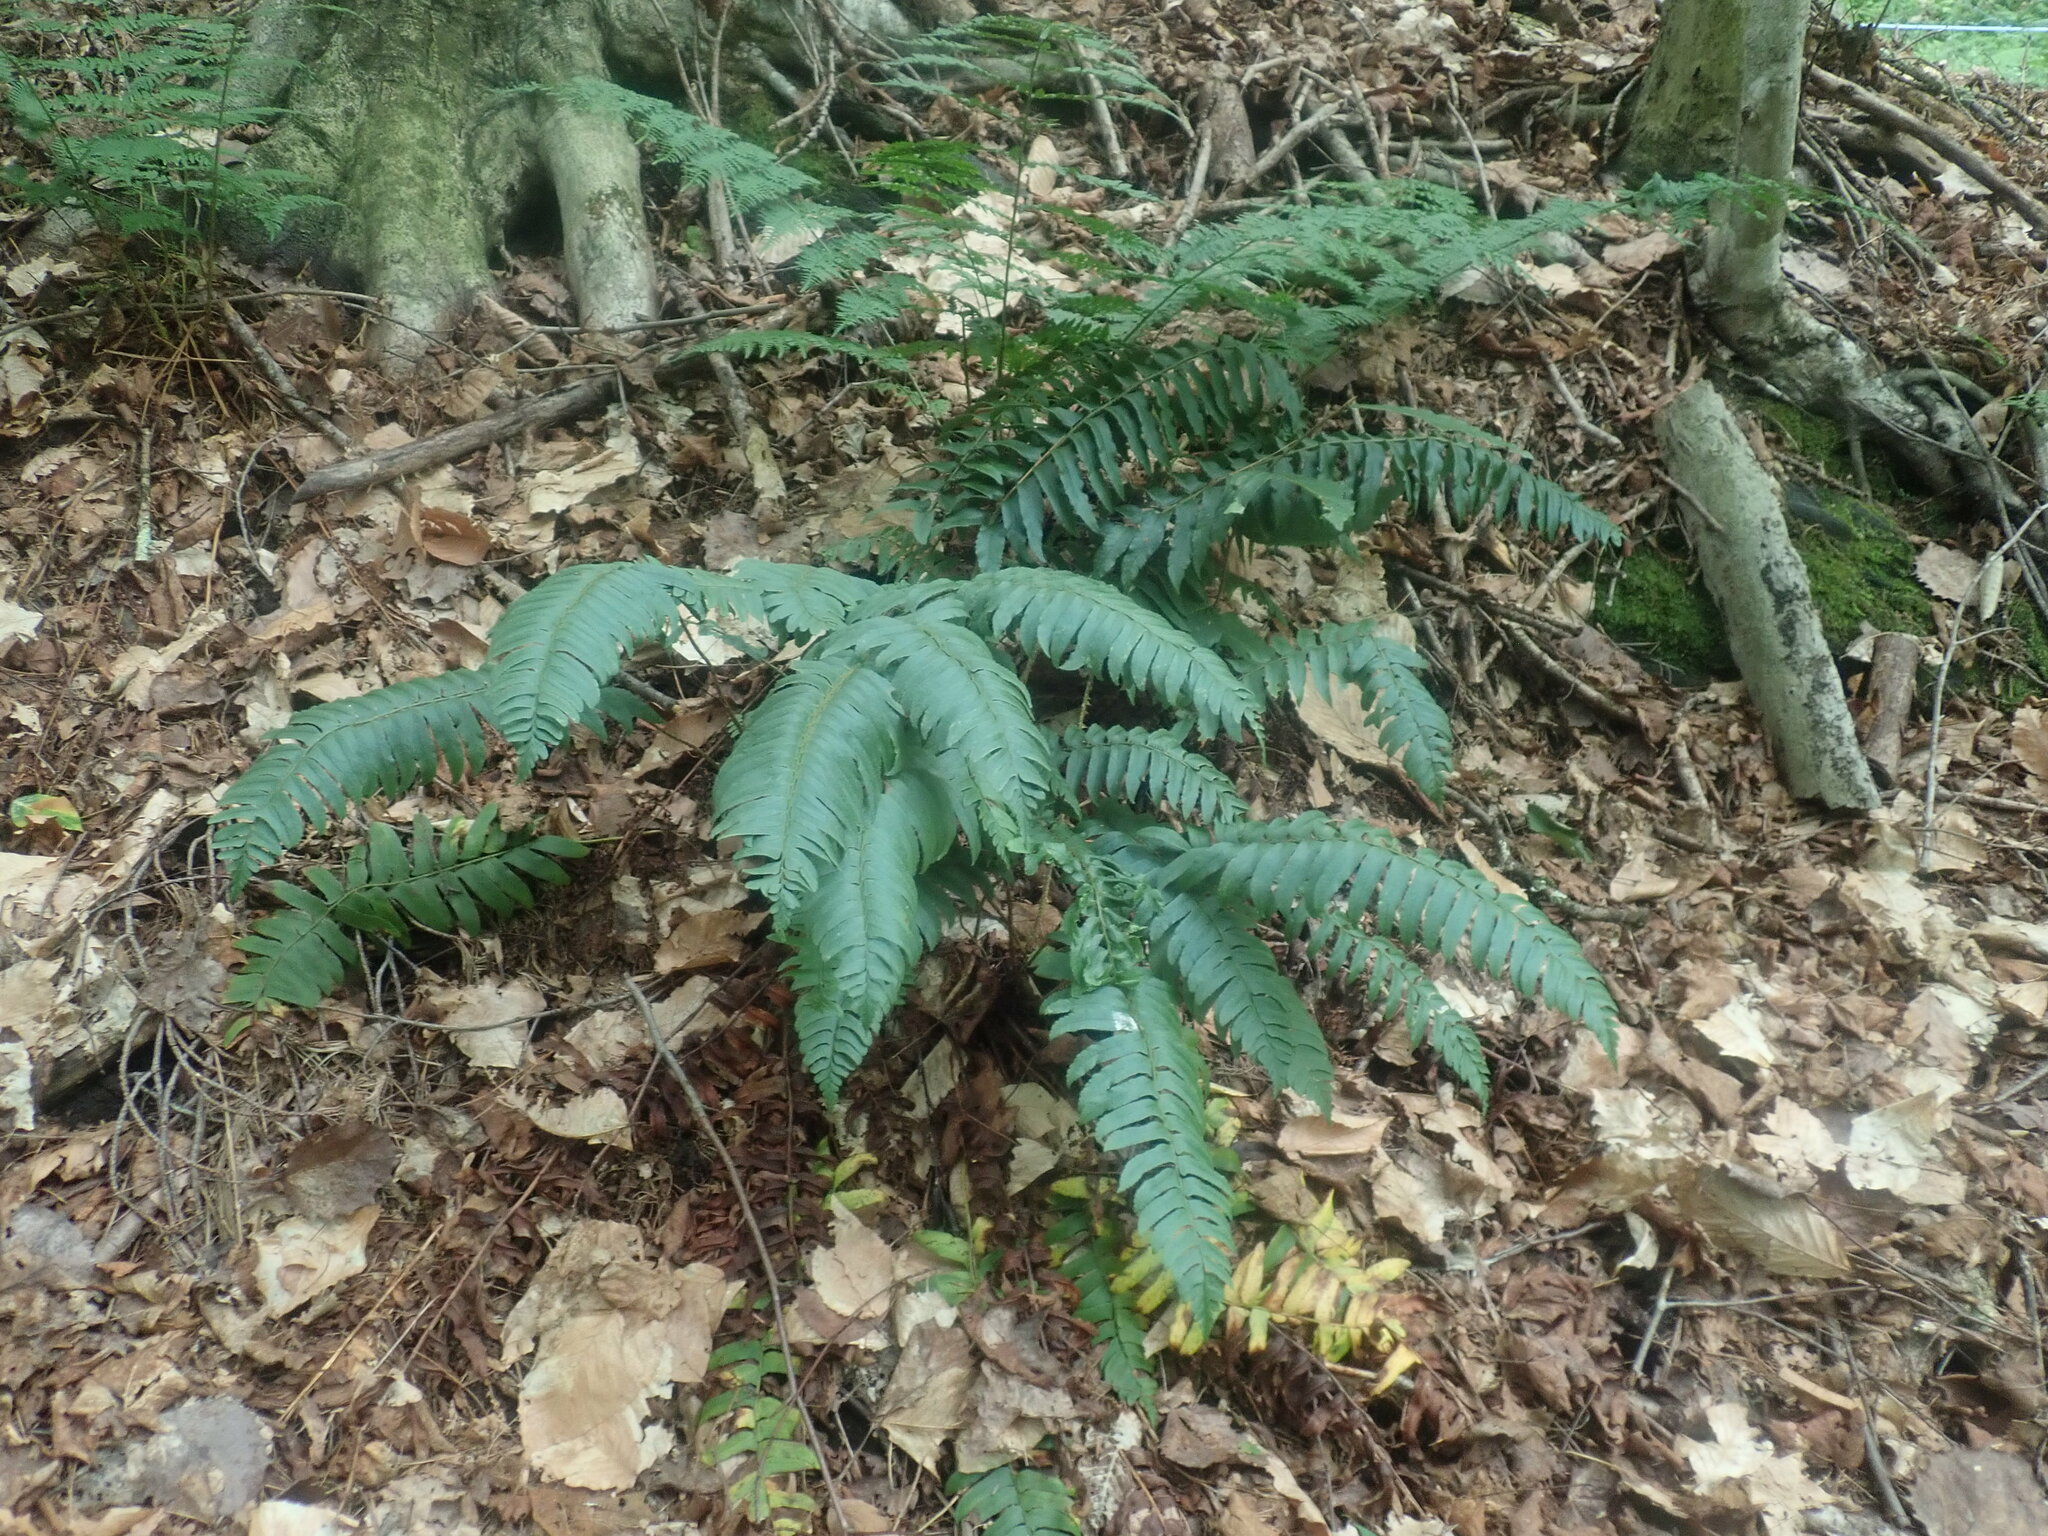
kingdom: Plantae
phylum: Tracheophyta
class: Polypodiopsida
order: Polypodiales
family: Dryopteridaceae
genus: Polystichum
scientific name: Polystichum acrostichoides
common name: Christmas fern
